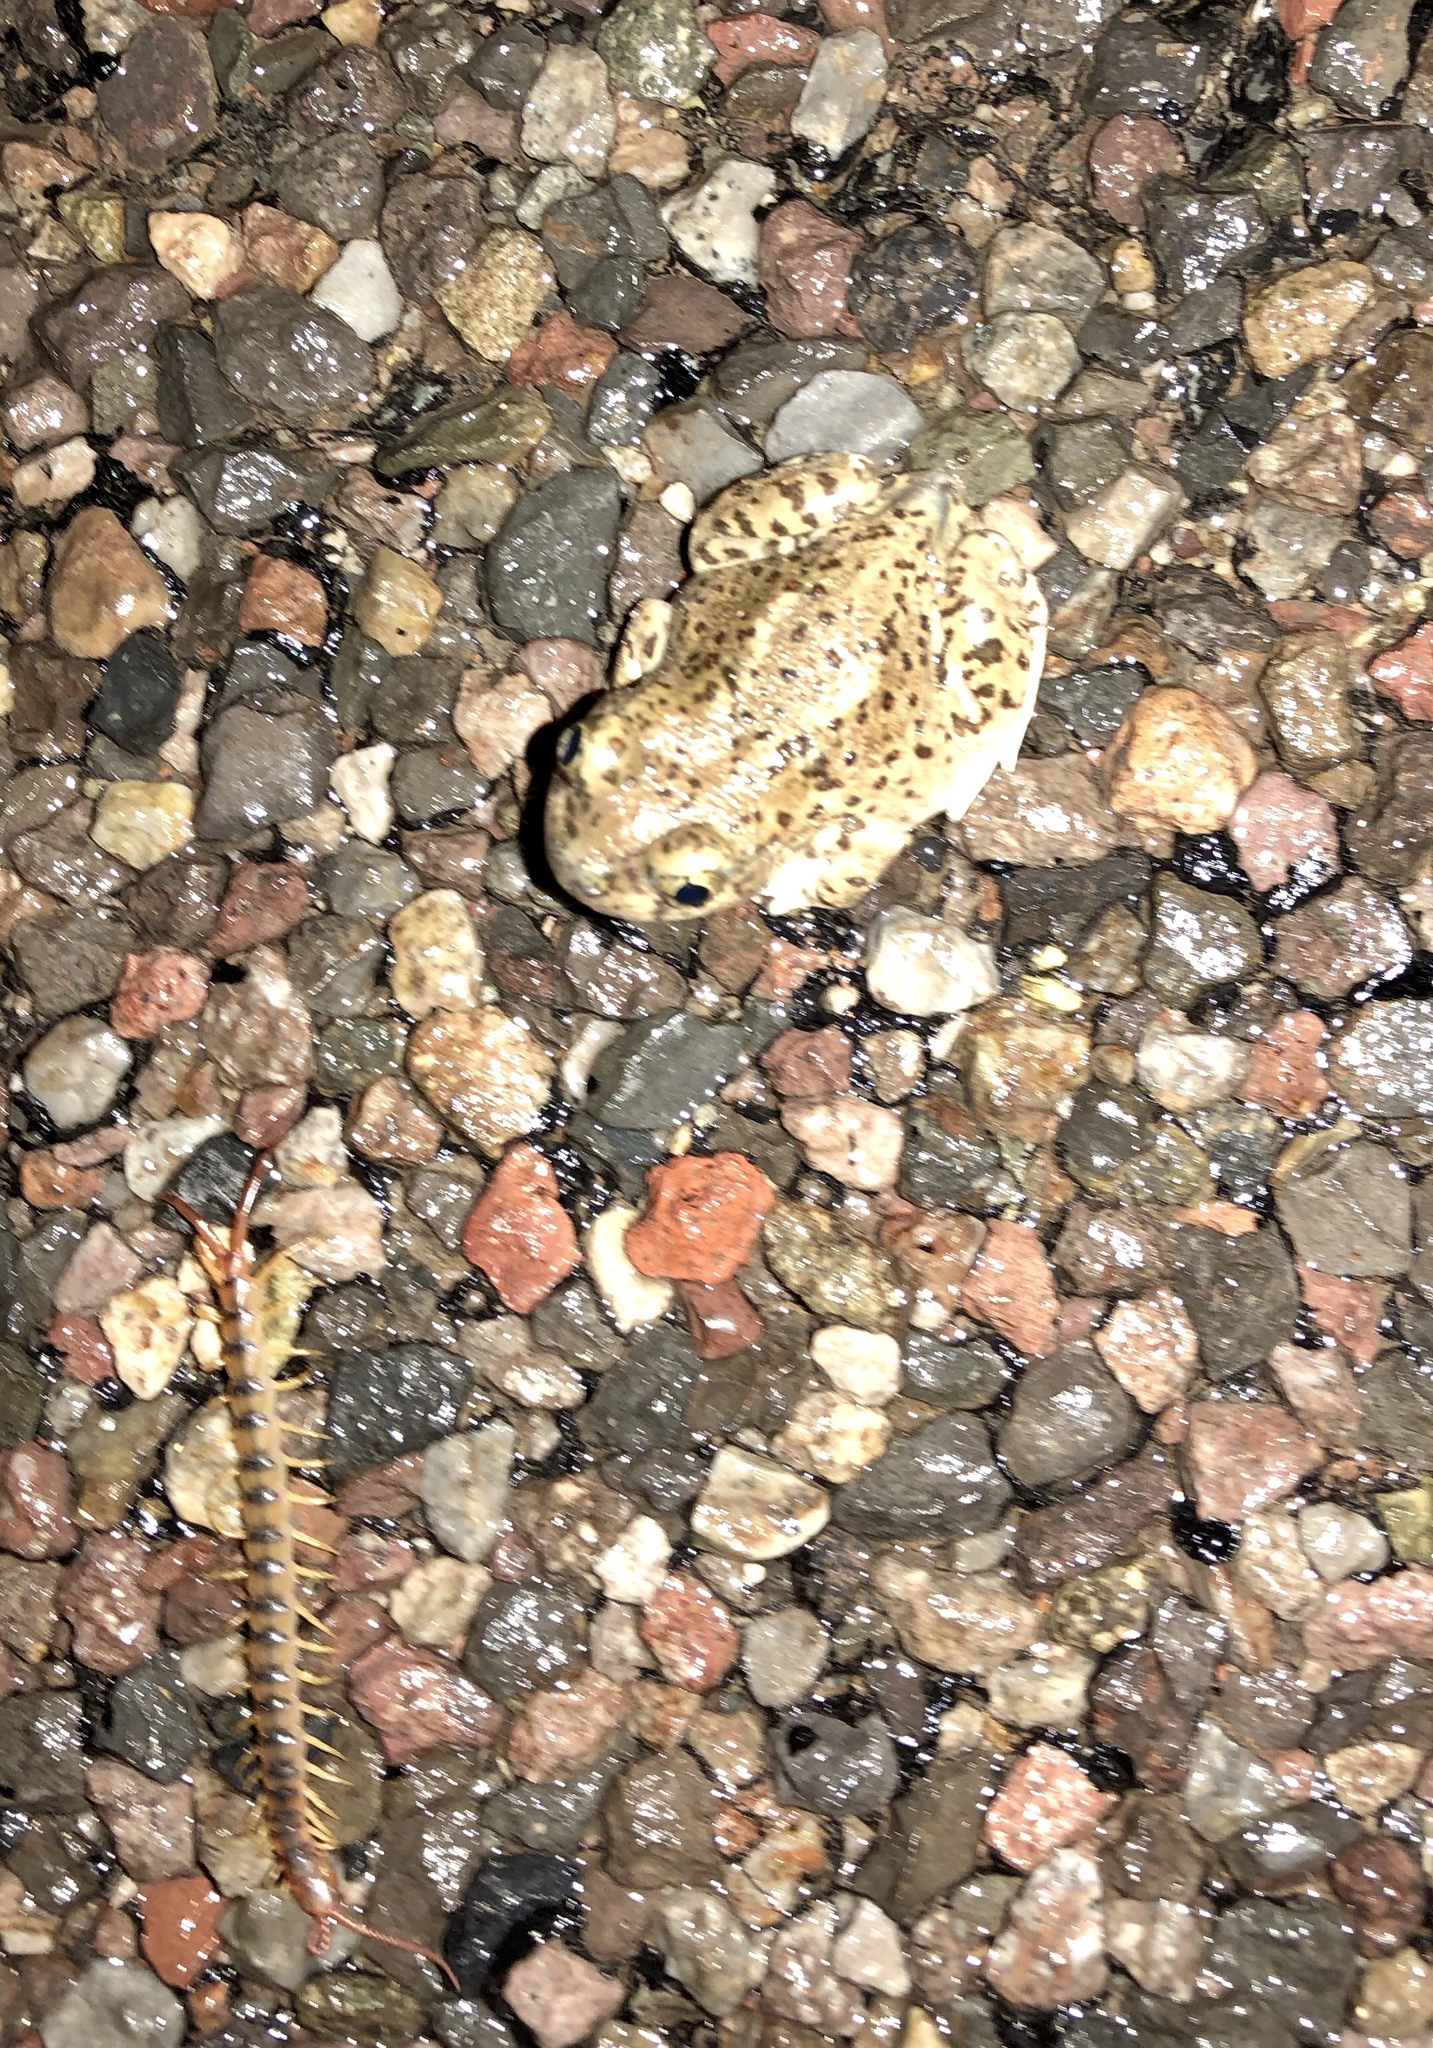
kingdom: Animalia
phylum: Chordata
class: Amphibia
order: Anura
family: Scaphiopodidae
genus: Spea
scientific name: Spea multiplicata
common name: Mexican spadefoot
